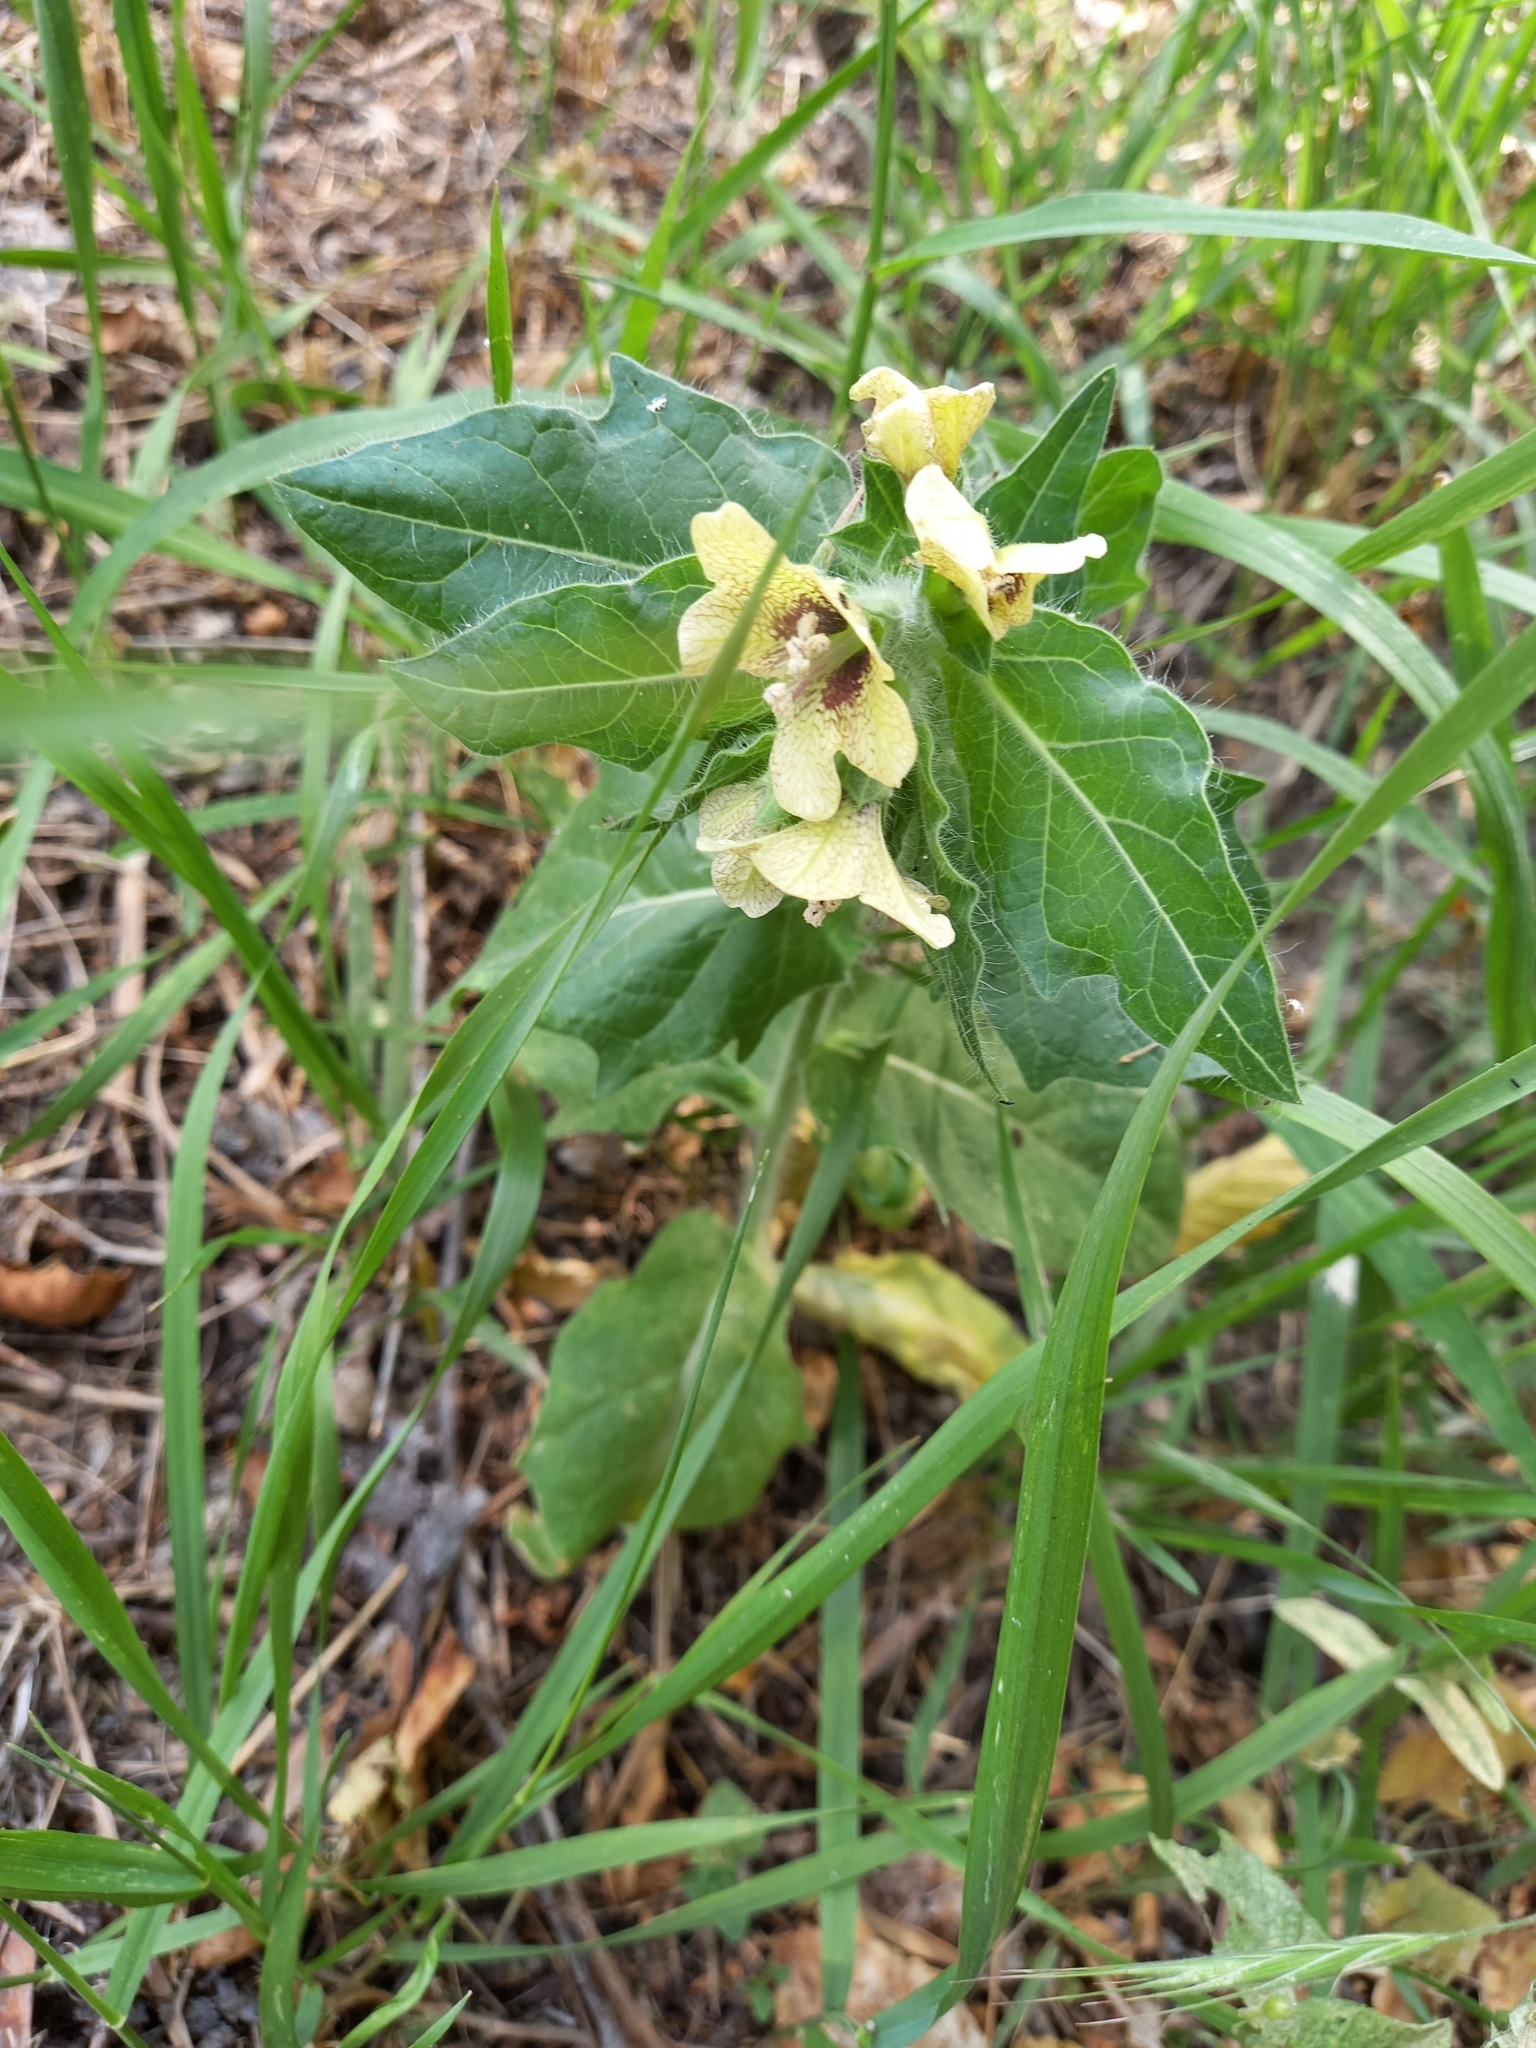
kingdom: Plantae
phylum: Tracheophyta
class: Magnoliopsida
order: Solanales
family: Solanaceae
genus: Hyoscyamus
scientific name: Hyoscyamus niger
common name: Henbane
